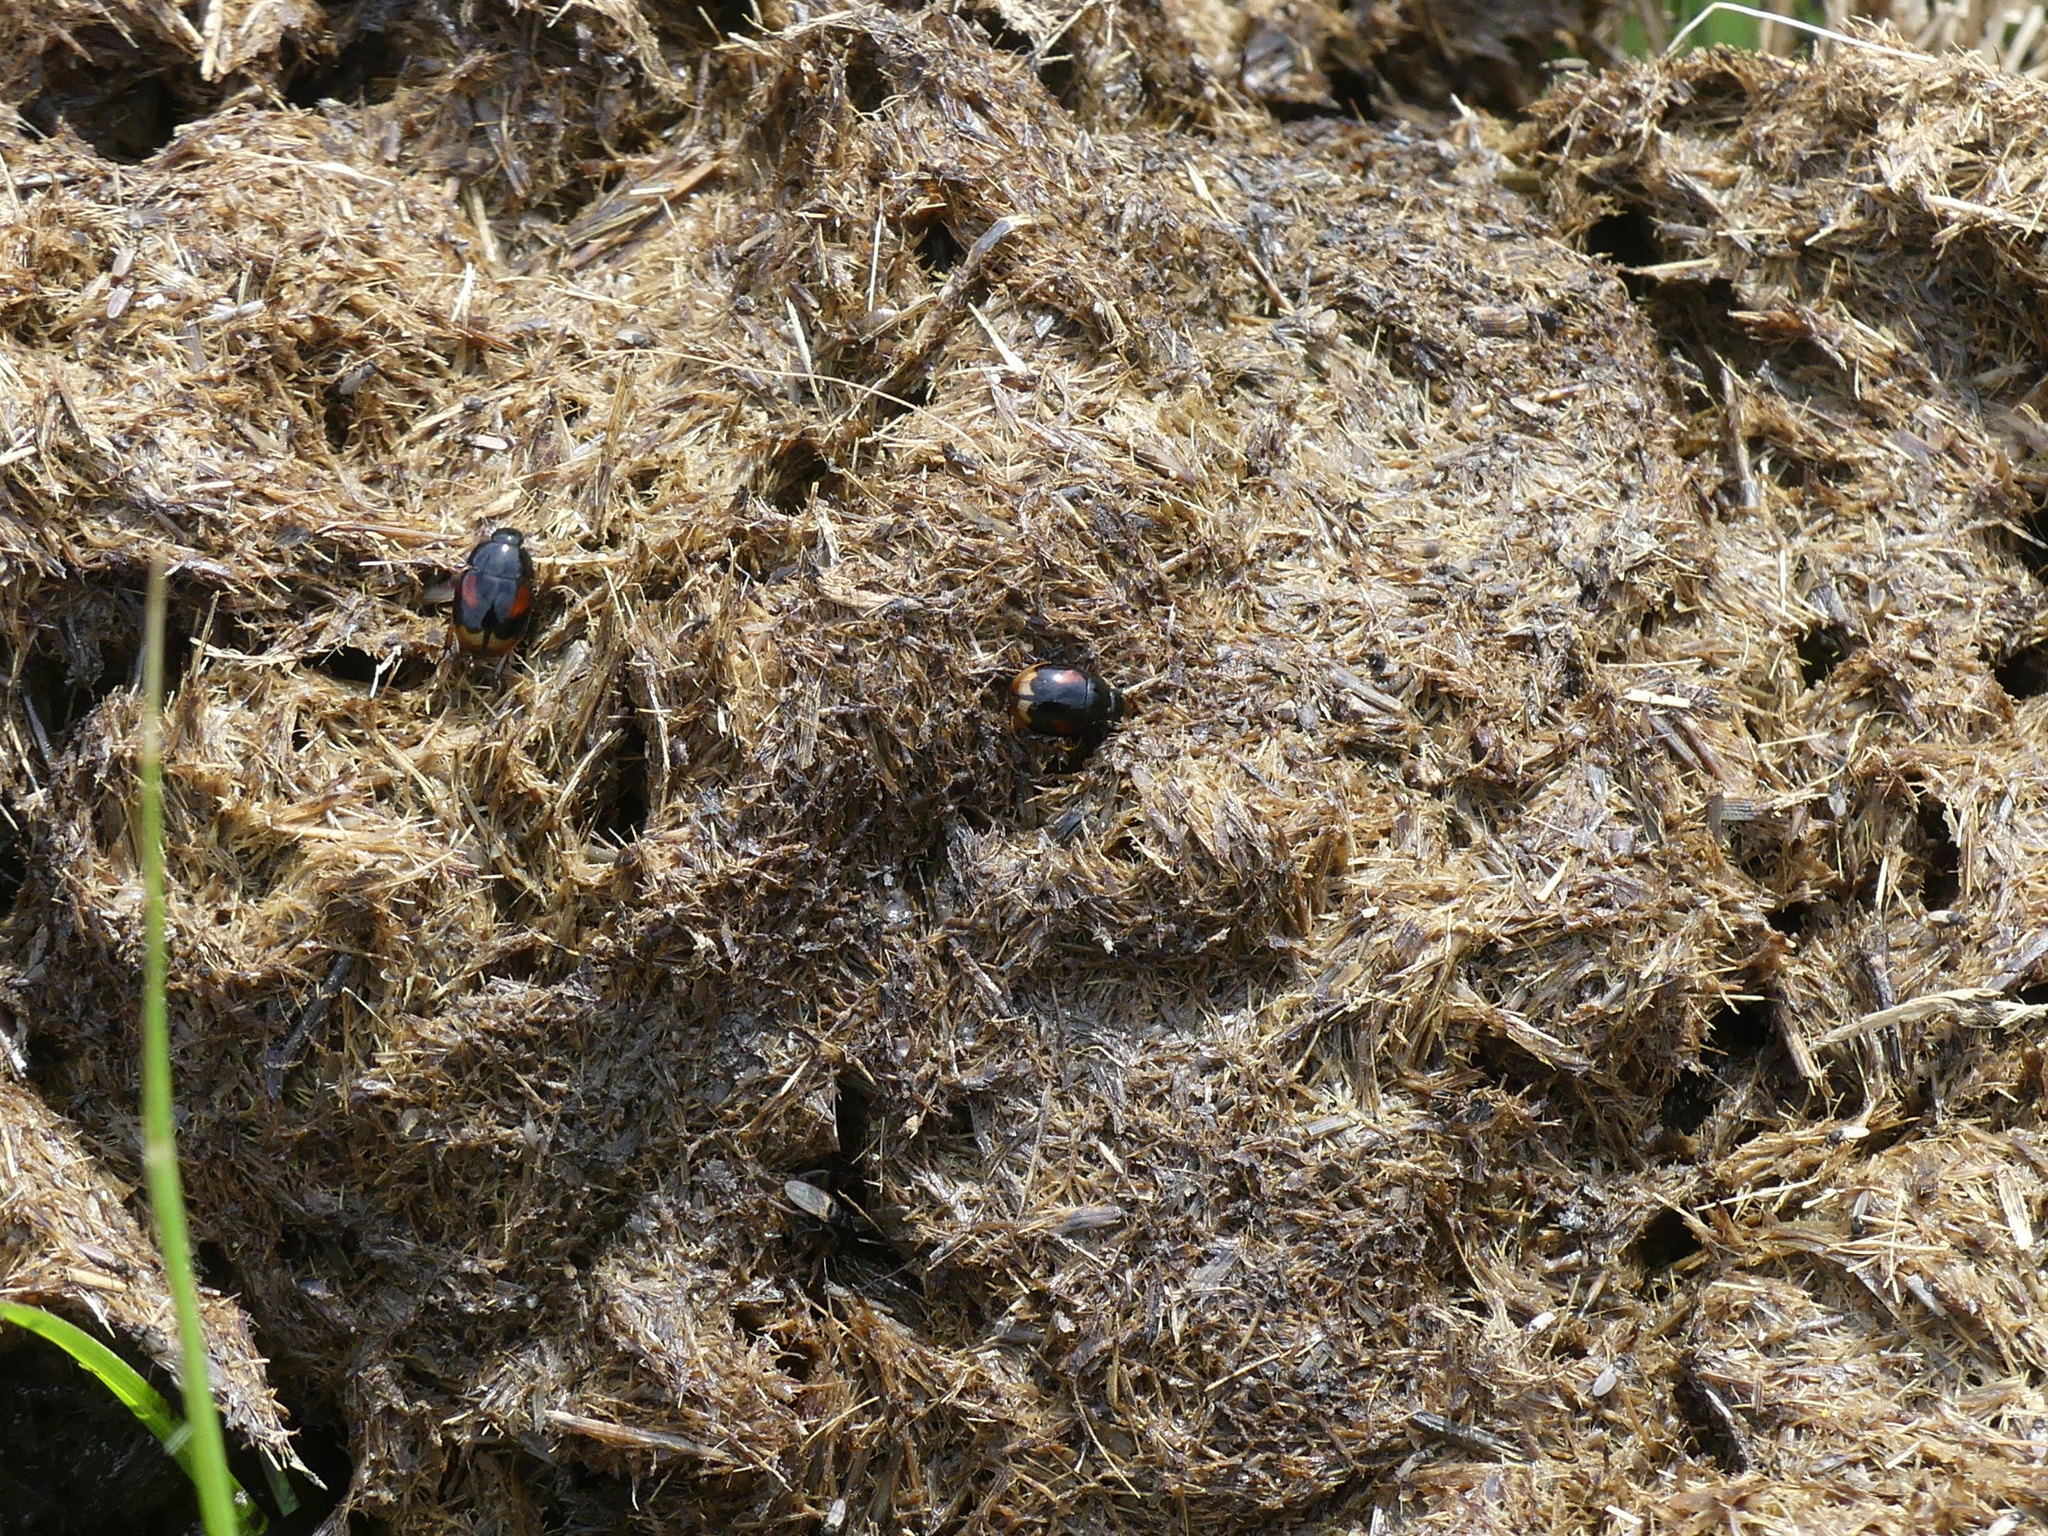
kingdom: Animalia
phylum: Arthropoda
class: Insecta
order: Coleoptera
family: Hydrophilidae
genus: Sphaeridium
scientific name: Sphaeridium
